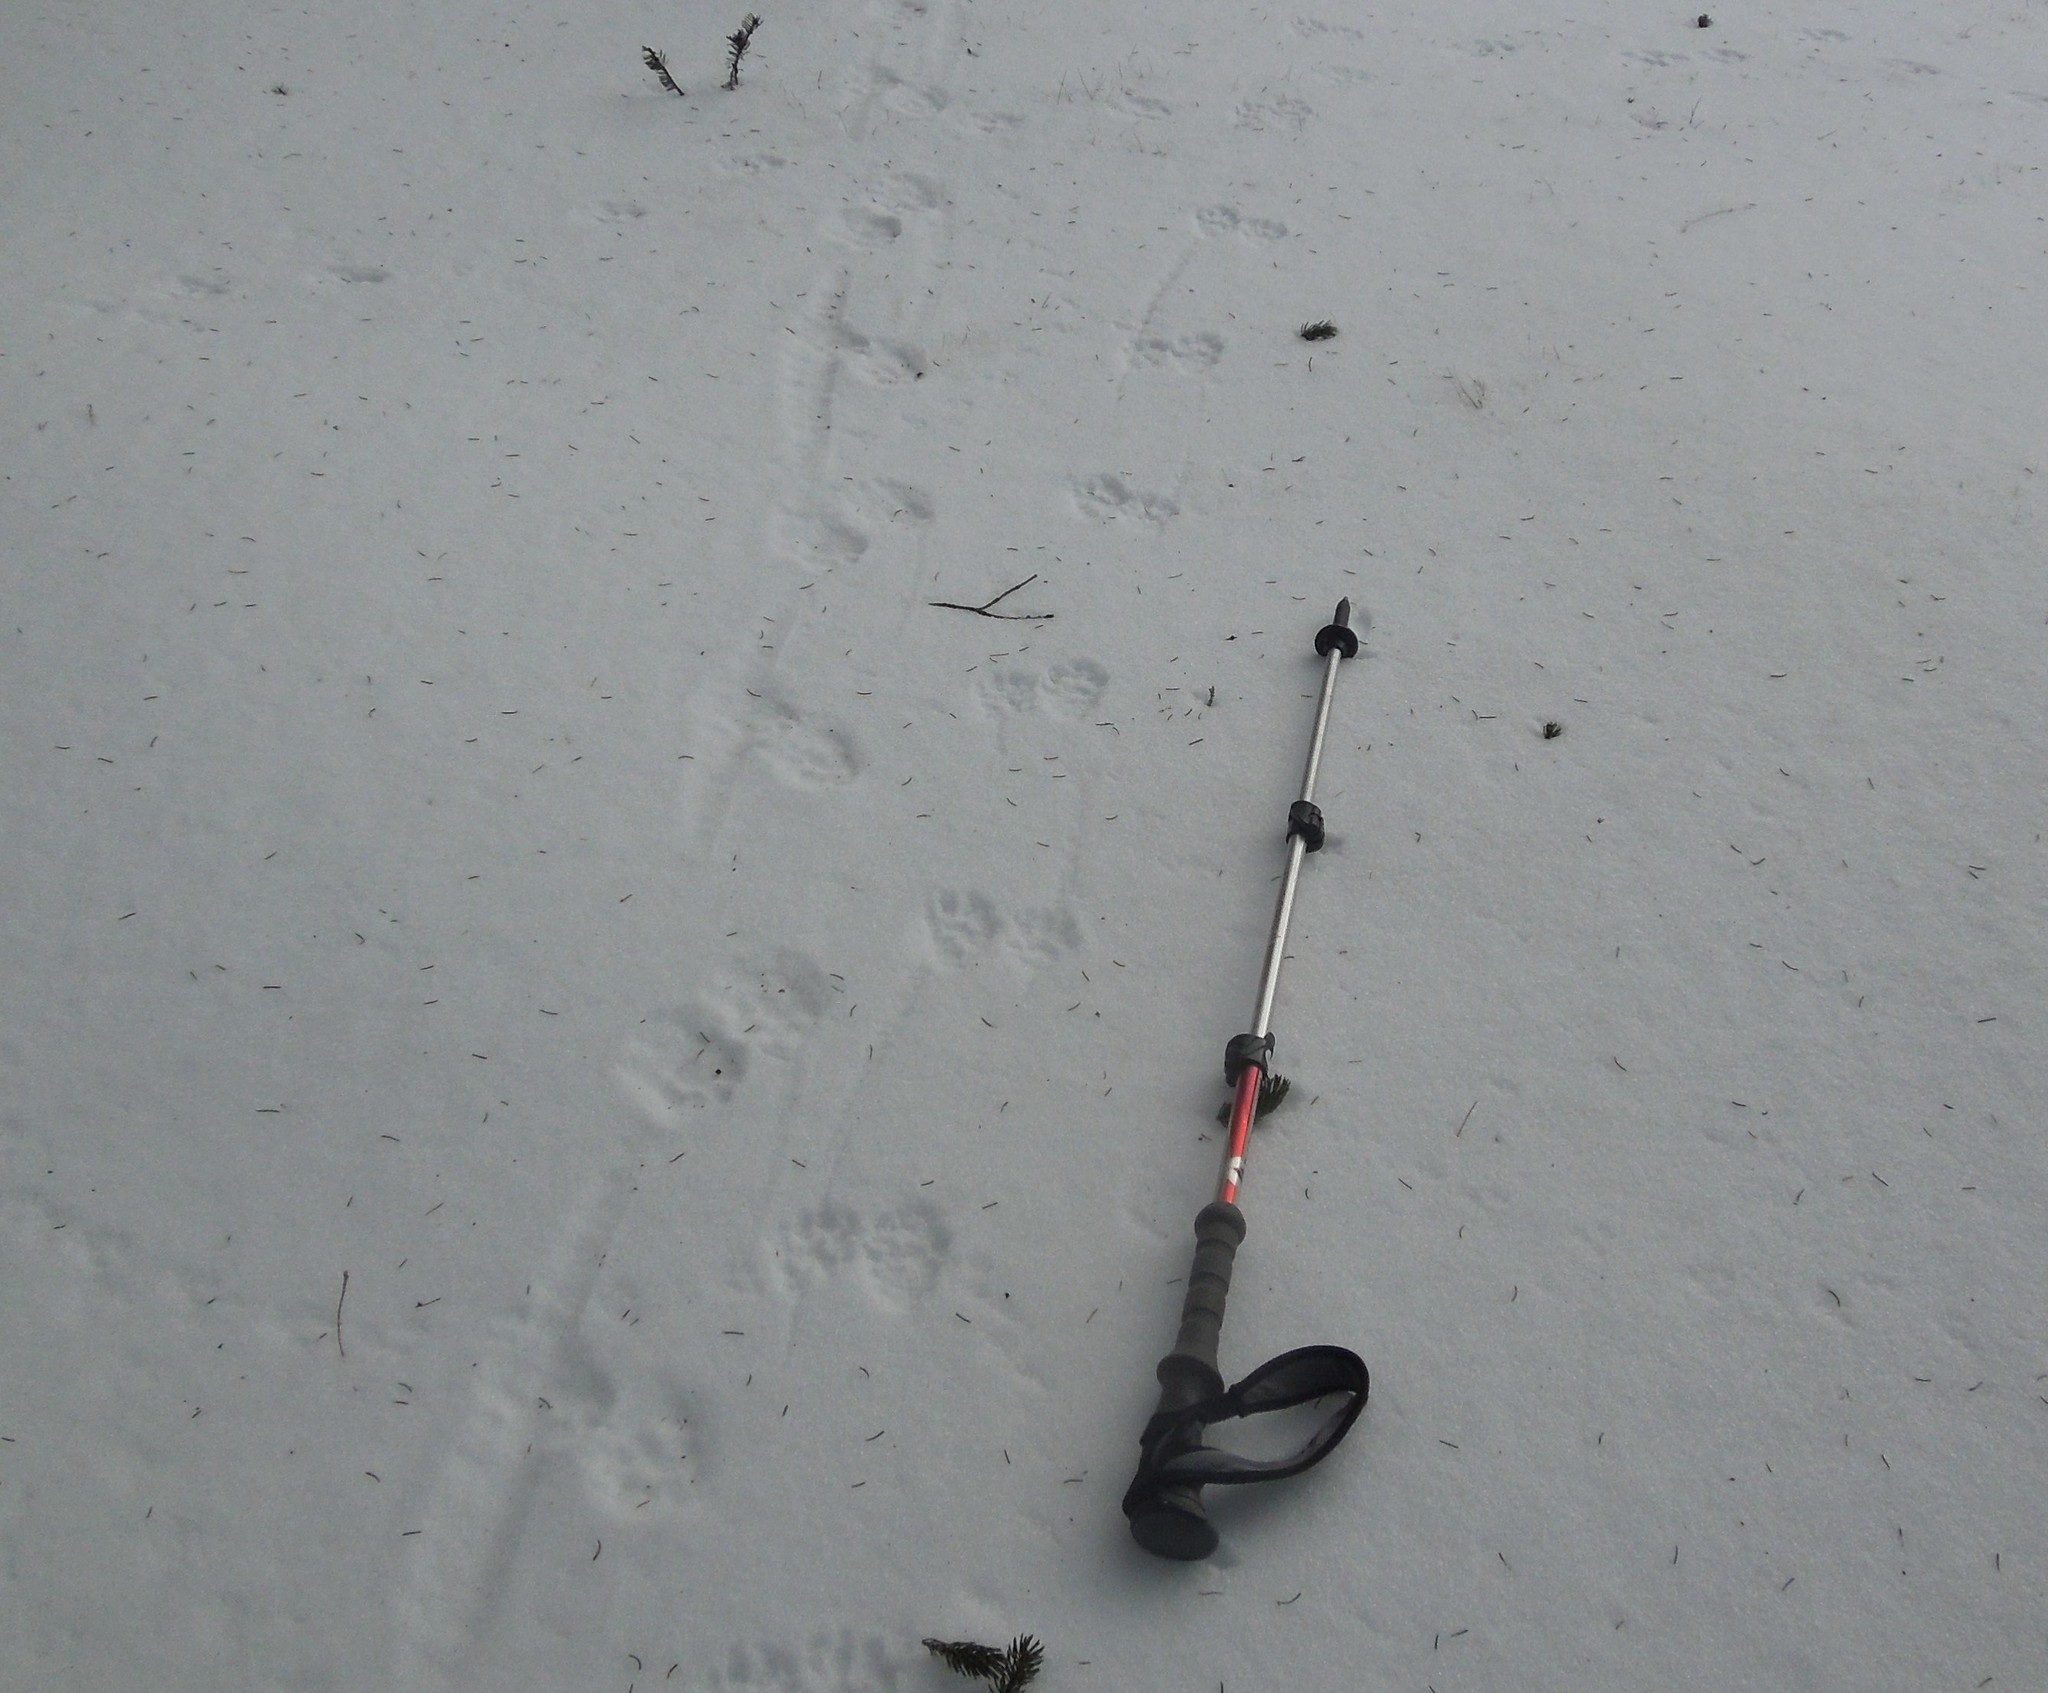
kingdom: Animalia
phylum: Chordata
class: Mammalia
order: Carnivora
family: Procyonidae
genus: Procyon
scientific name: Procyon lotor
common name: Raccoon
